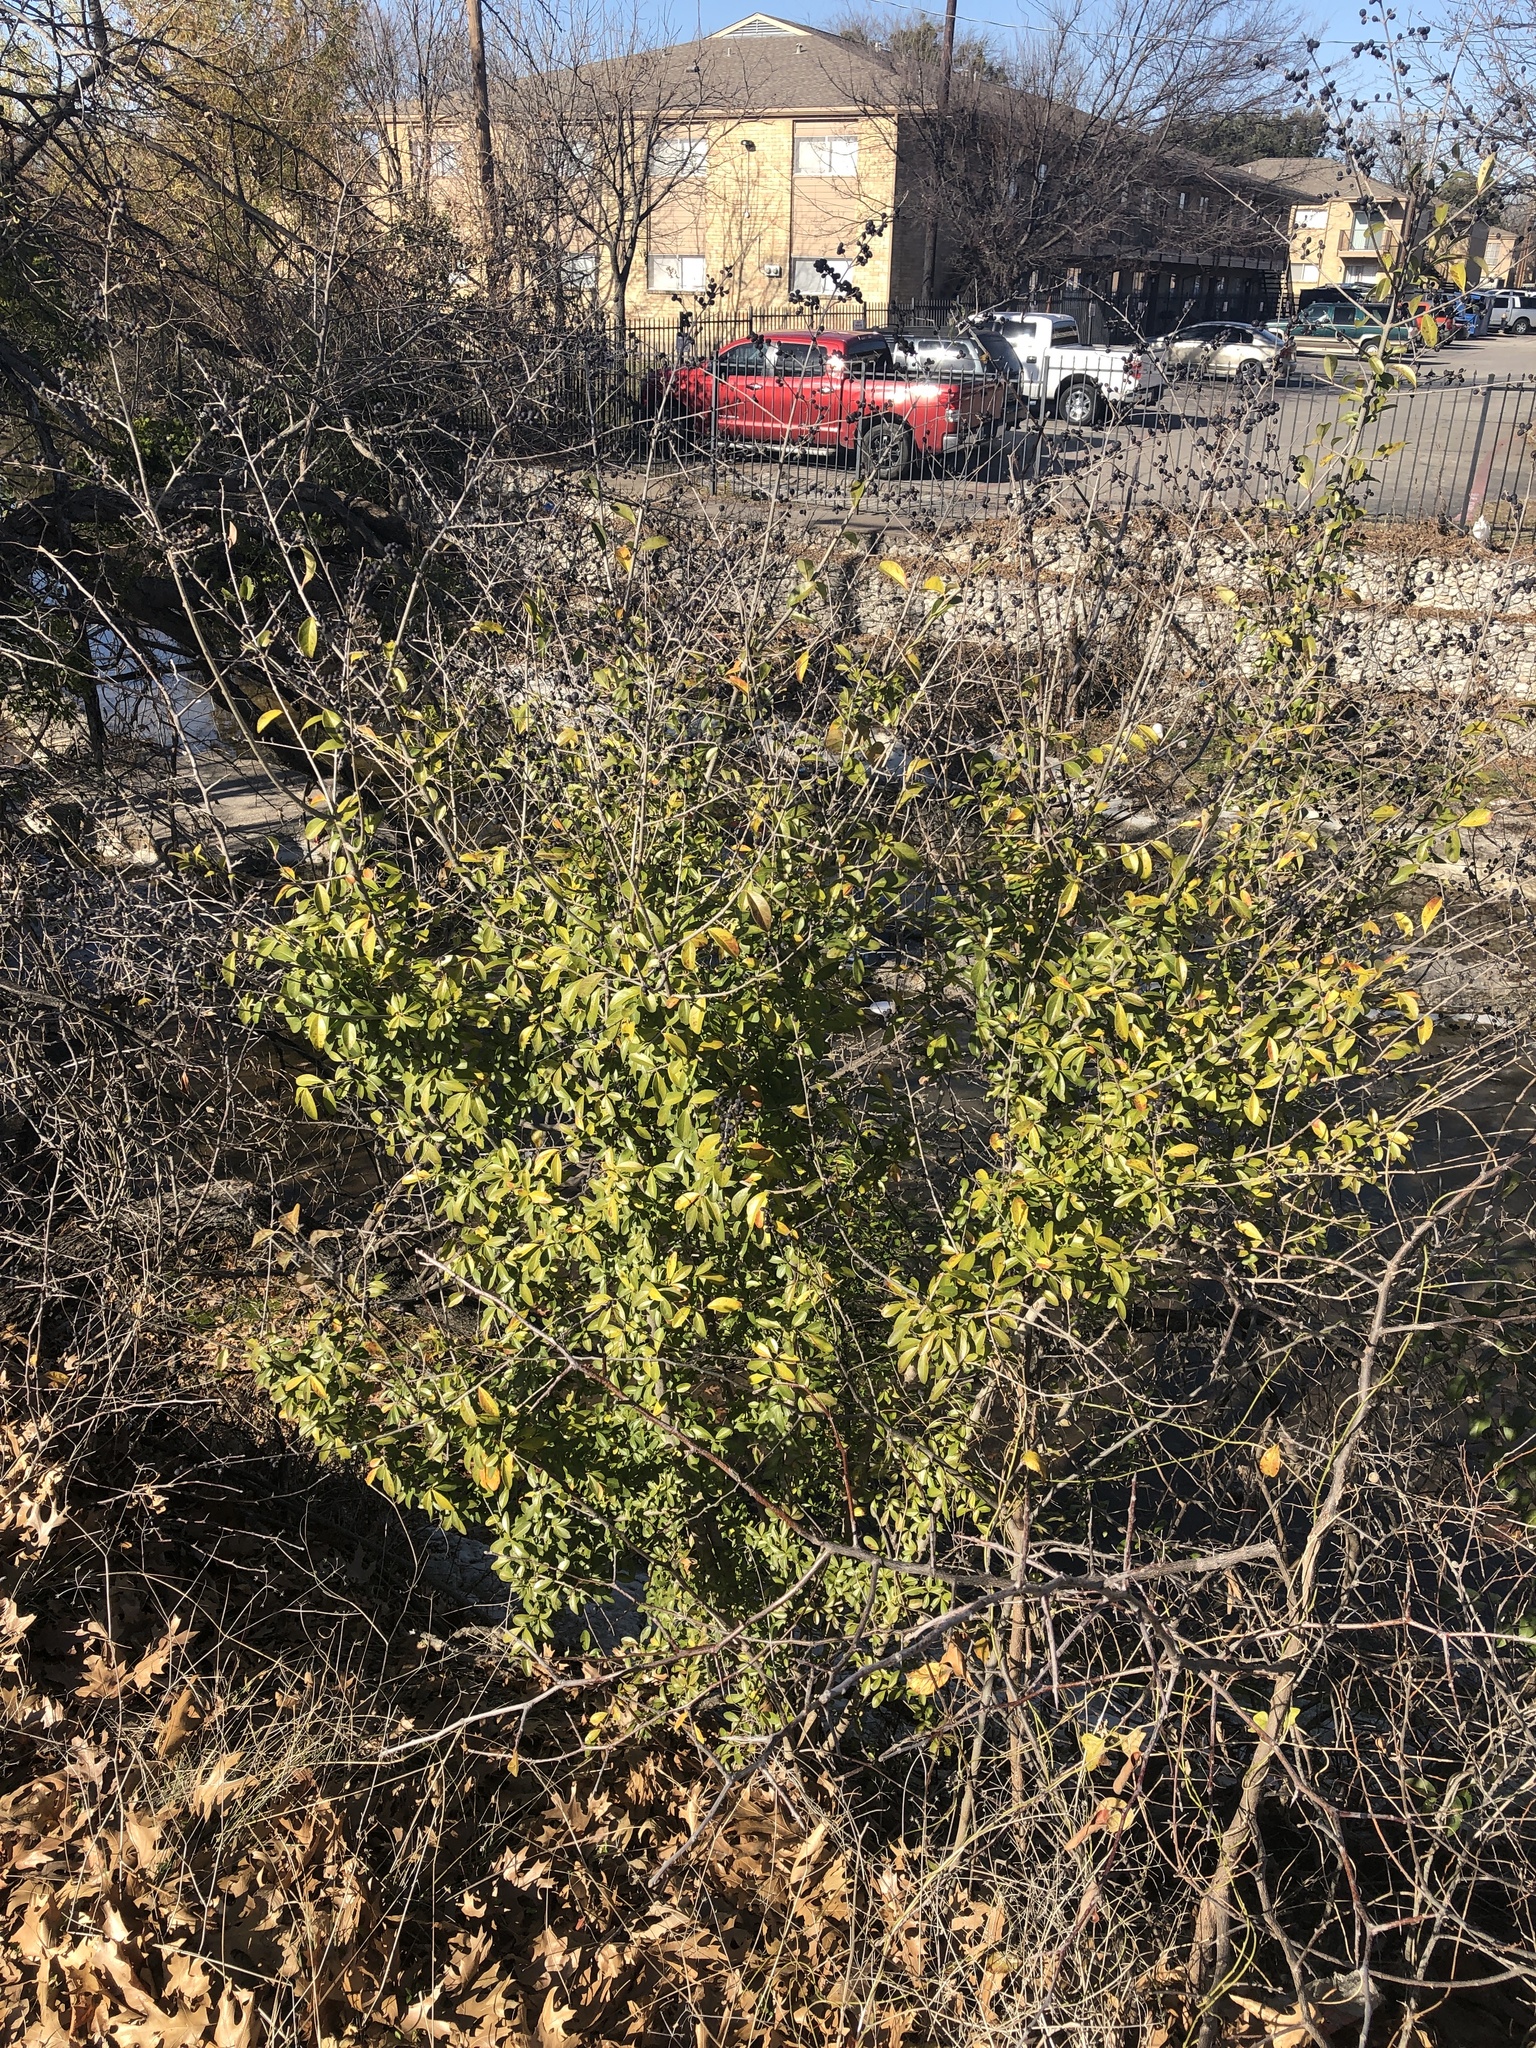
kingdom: Plantae
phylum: Tracheophyta
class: Magnoliopsida
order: Lamiales
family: Oleaceae
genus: Ligustrum
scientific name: Ligustrum quihoui
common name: Waxyleaf privet
